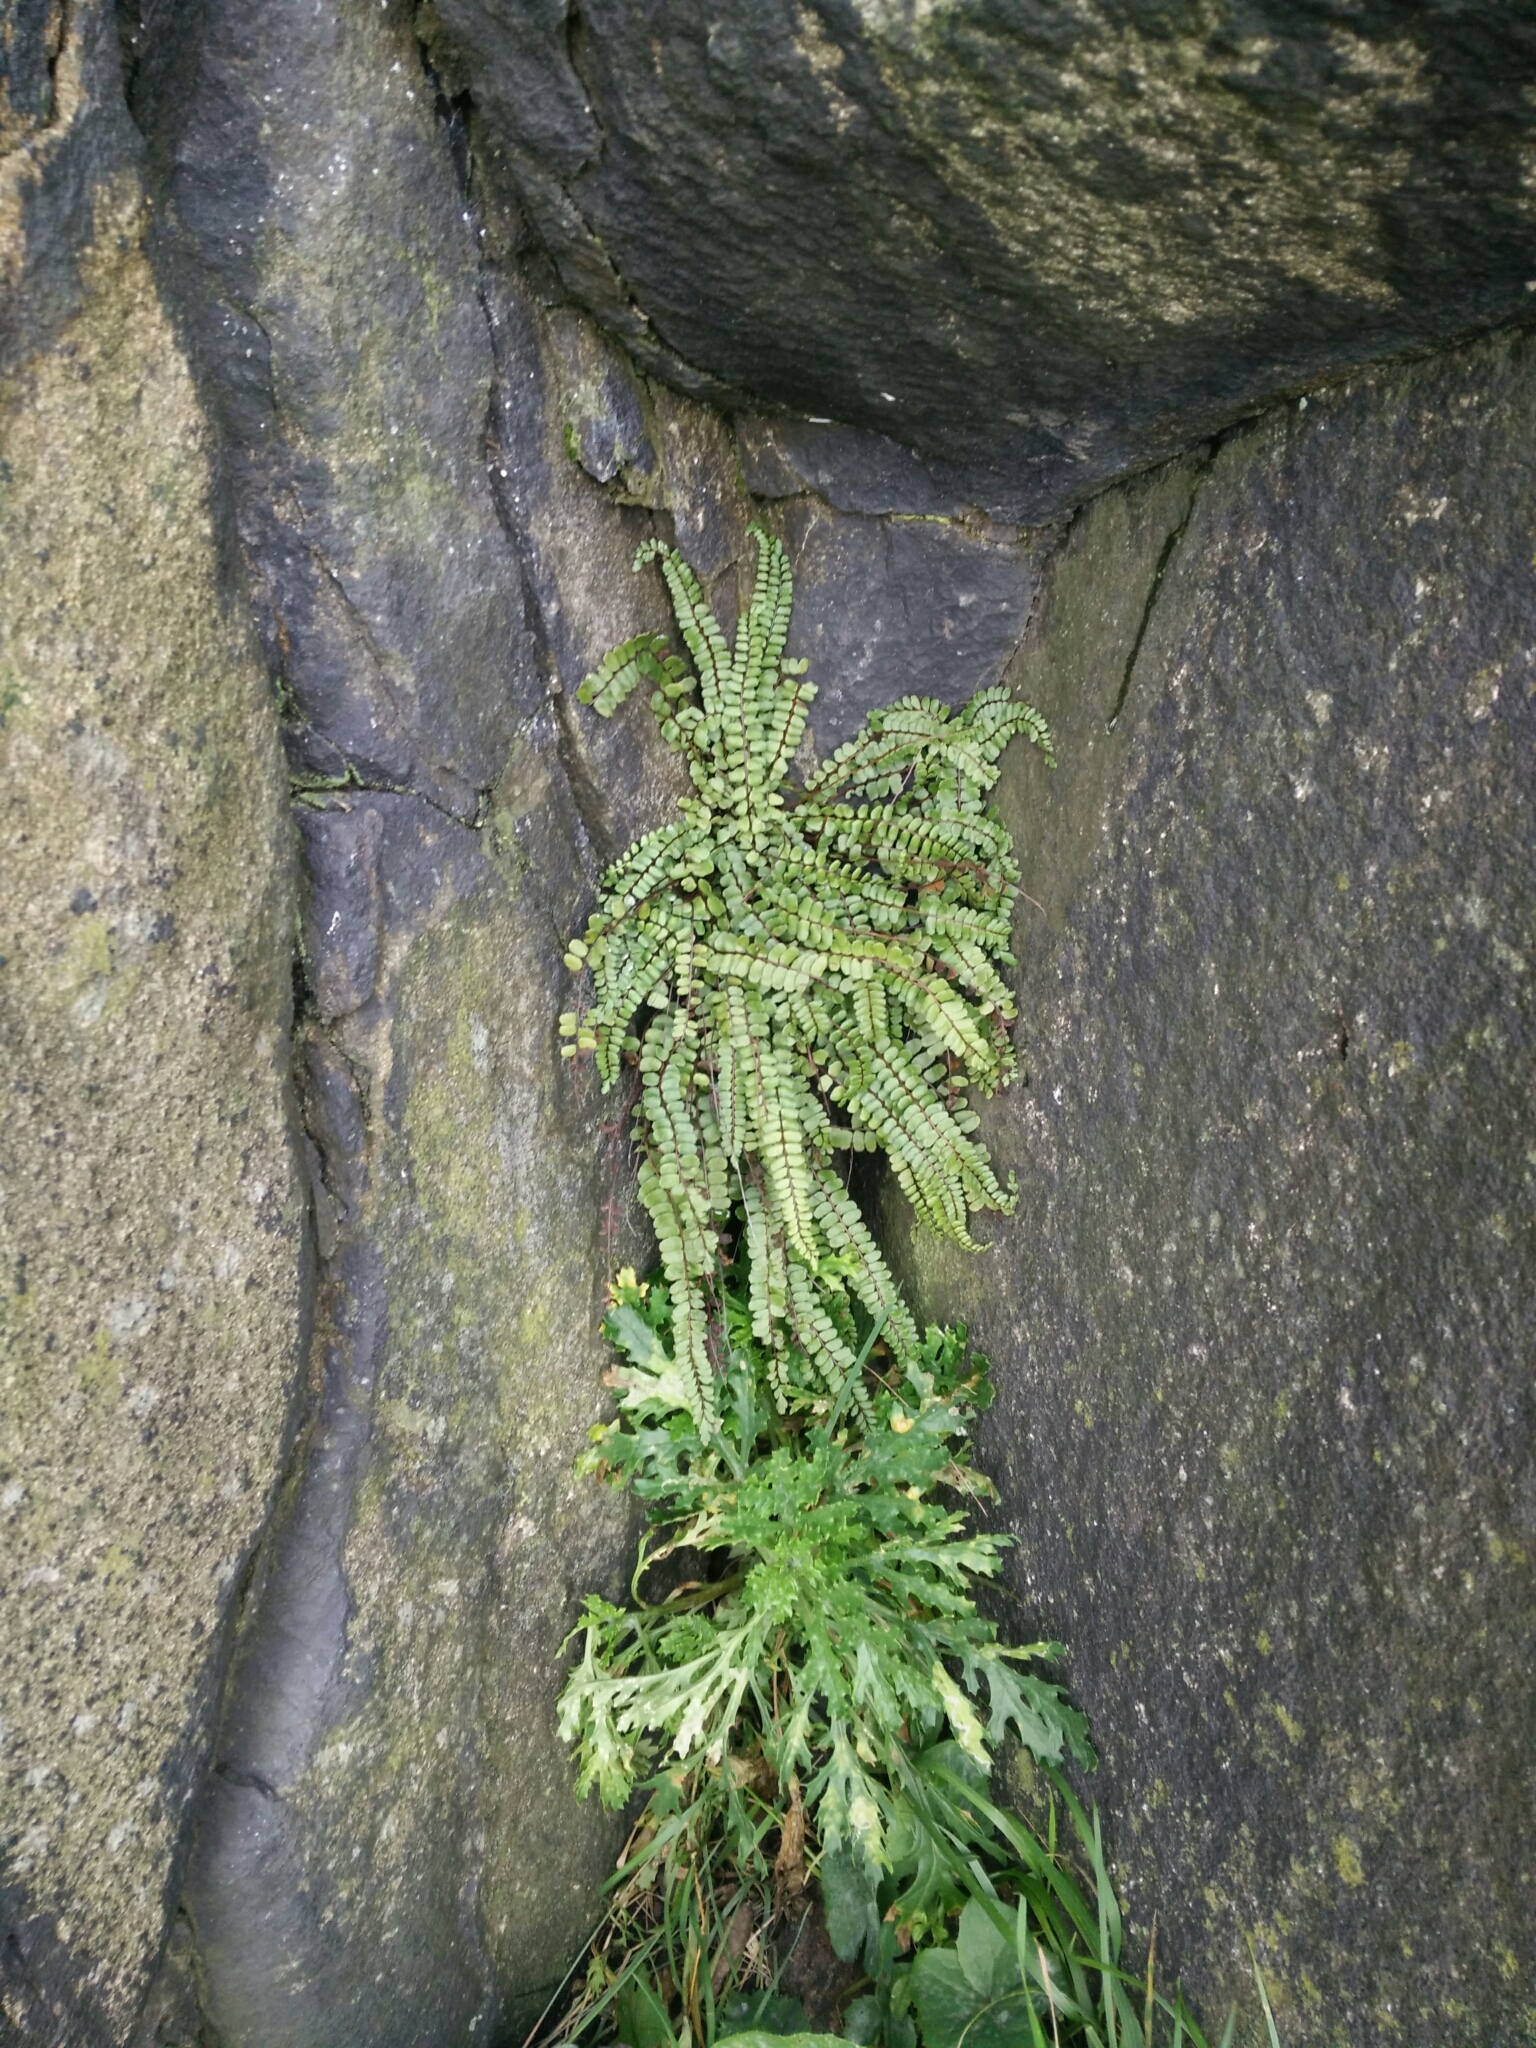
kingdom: Plantae
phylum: Tracheophyta
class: Polypodiopsida
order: Polypodiales
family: Aspleniaceae
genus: Asplenium
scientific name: Asplenium trichomanes
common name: Maidenhair spleenwort
